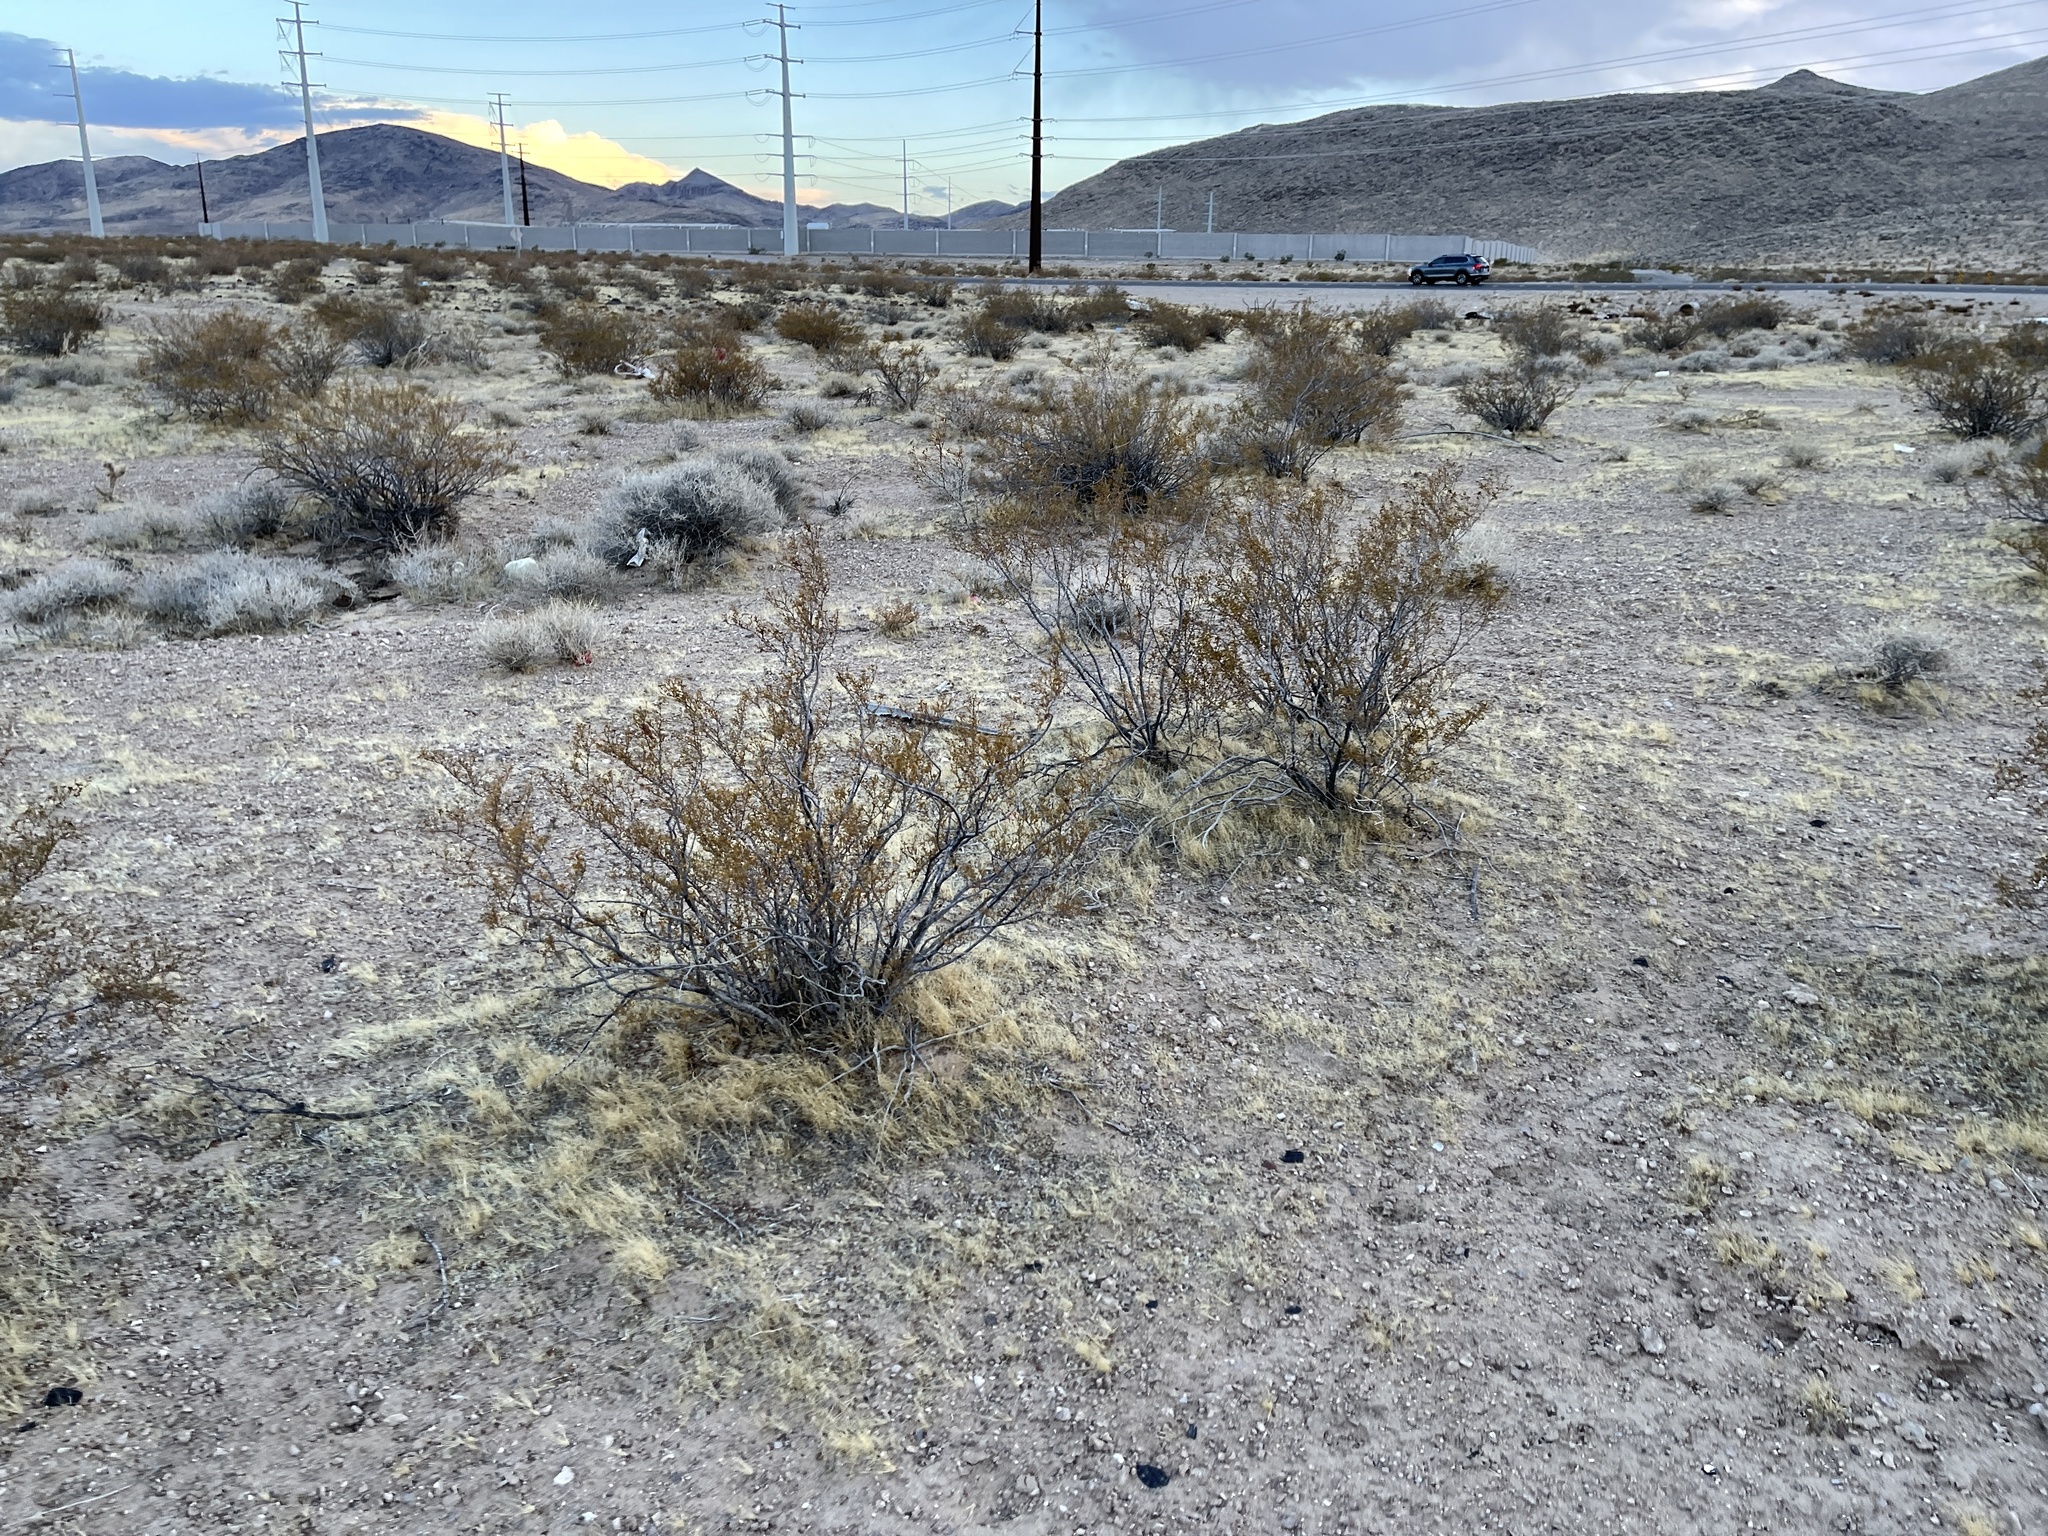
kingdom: Plantae
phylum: Tracheophyta
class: Magnoliopsida
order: Zygophyllales
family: Zygophyllaceae
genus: Larrea
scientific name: Larrea tridentata
